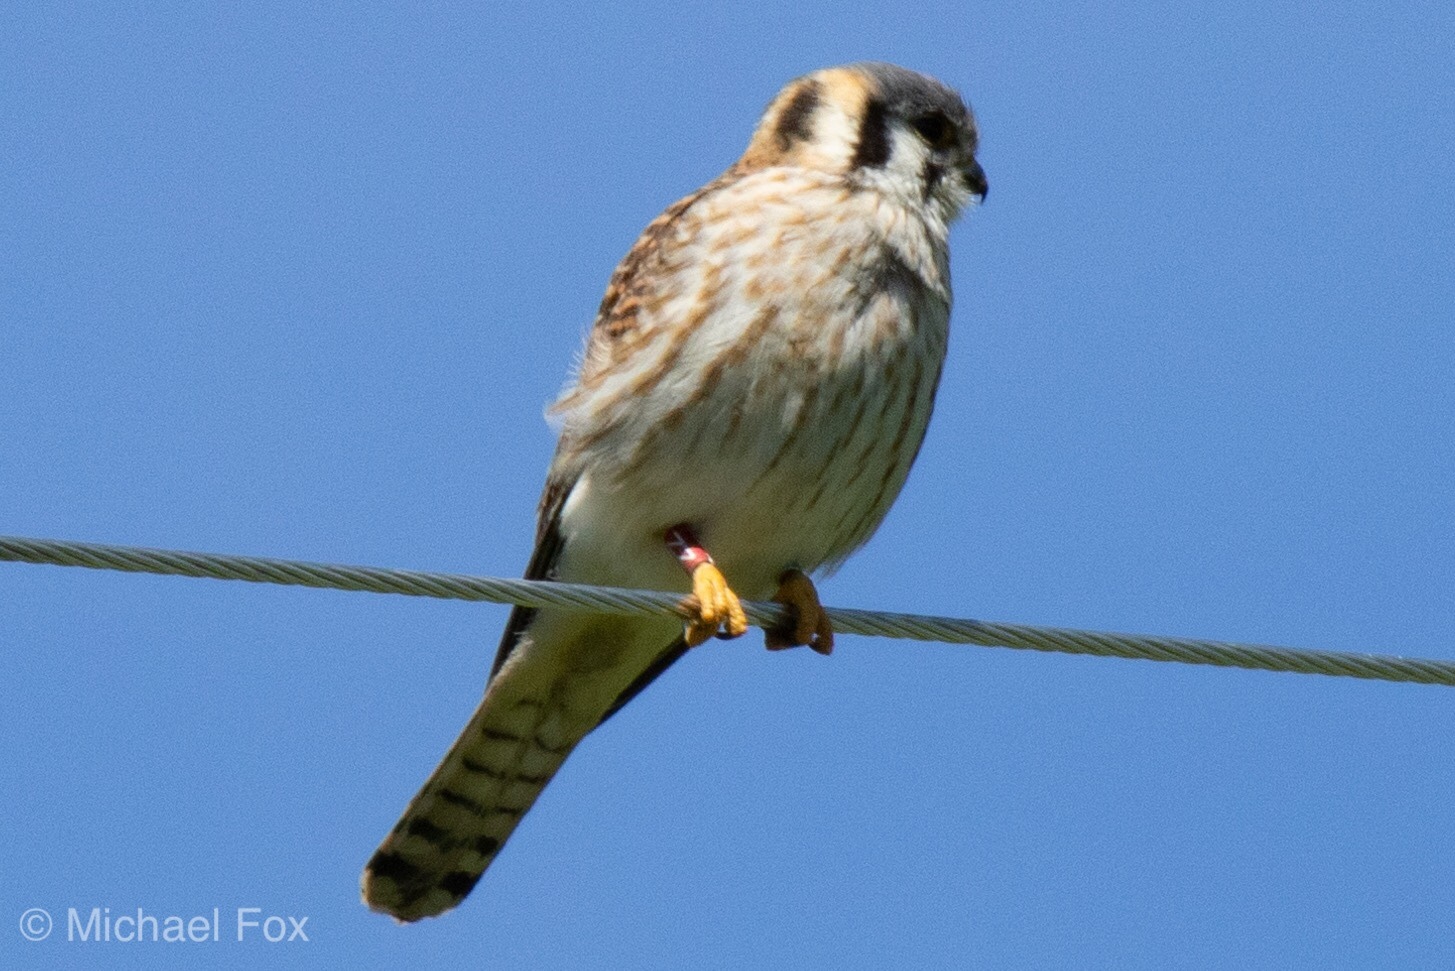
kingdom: Animalia
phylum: Chordata
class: Aves
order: Falconiformes
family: Falconidae
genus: Falco
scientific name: Falco sparverius
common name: American kestrel
